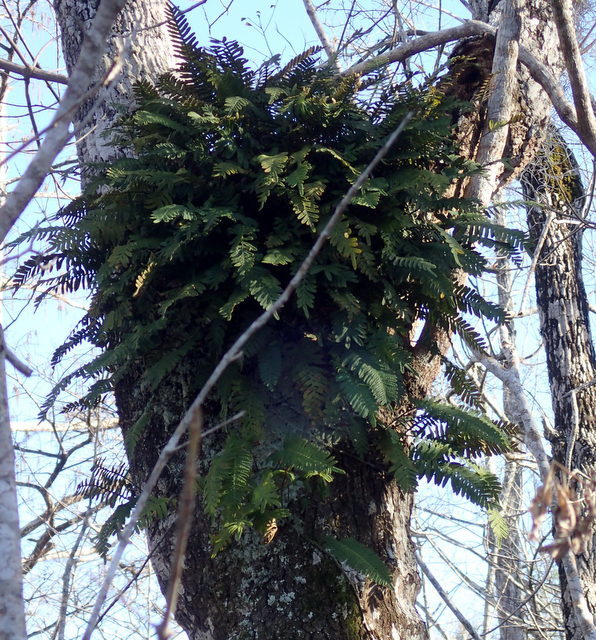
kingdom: Plantae
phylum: Tracheophyta
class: Polypodiopsida
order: Polypodiales
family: Polypodiaceae
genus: Pleopeltis
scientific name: Pleopeltis michauxiana
